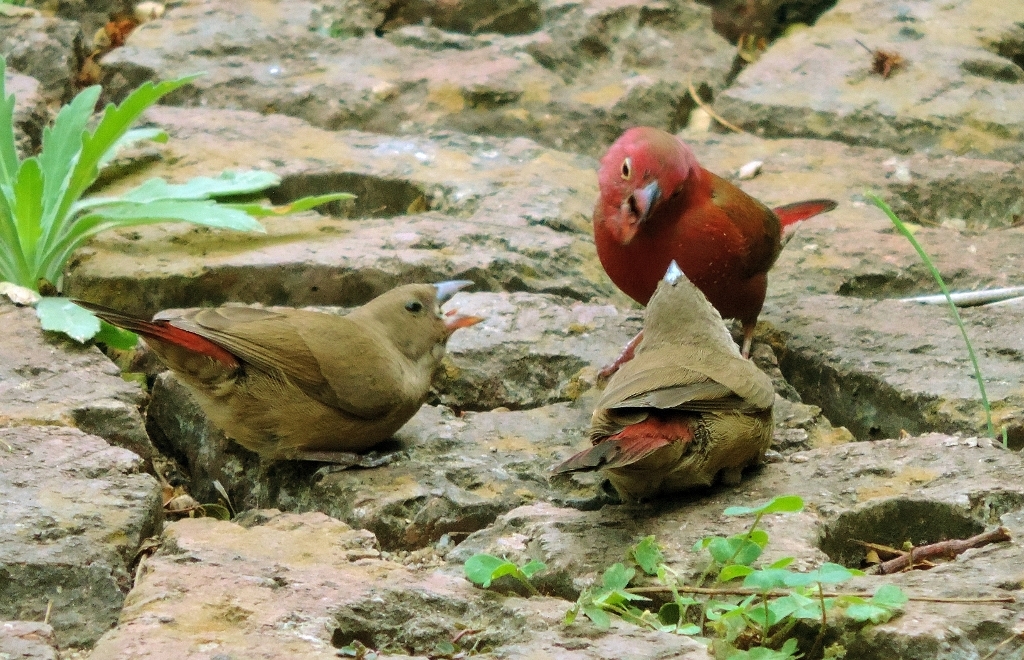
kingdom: Animalia
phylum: Chordata
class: Aves
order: Passeriformes
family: Estrildidae
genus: Lagonosticta
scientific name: Lagonosticta senegala
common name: Red-billed firefinch
